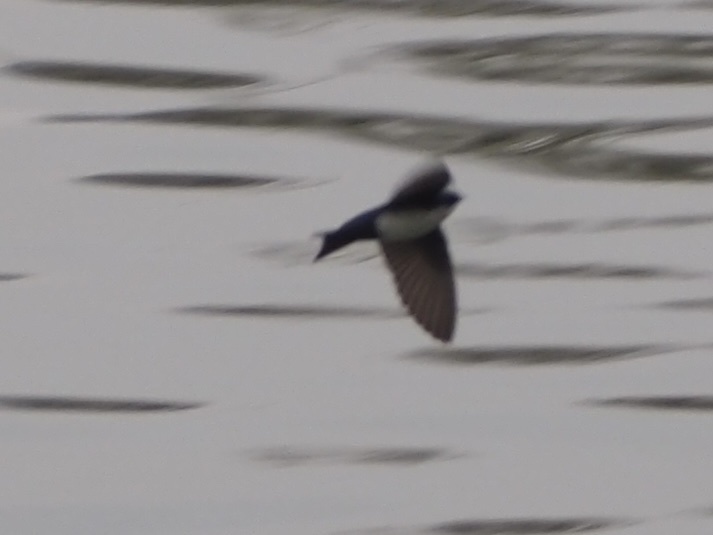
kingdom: Animalia
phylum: Chordata
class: Aves
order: Passeriformes
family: Hirundinidae
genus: Notiochelidon
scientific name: Notiochelidon cyanoleuca
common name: Blue-and-white swallow
